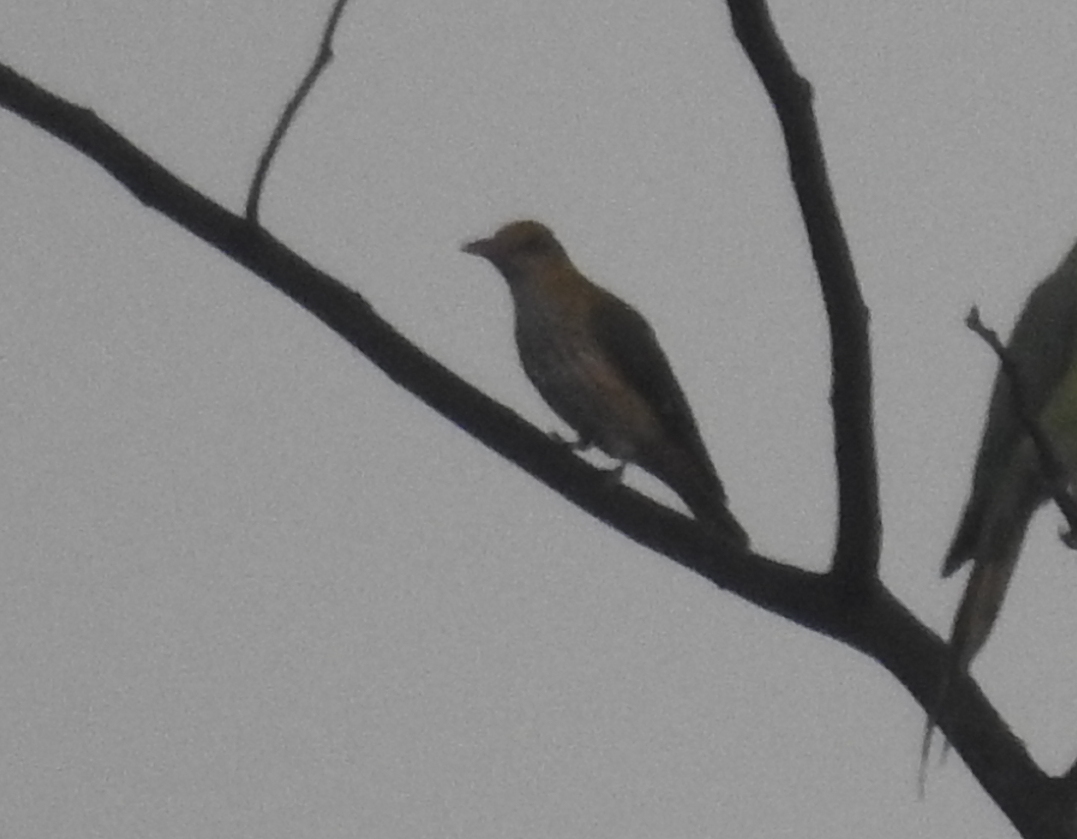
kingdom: Animalia
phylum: Chordata
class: Aves
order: Passeriformes
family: Oriolidae
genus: Oriolus
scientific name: Oriolus kundoo
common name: Indian golden oriole
